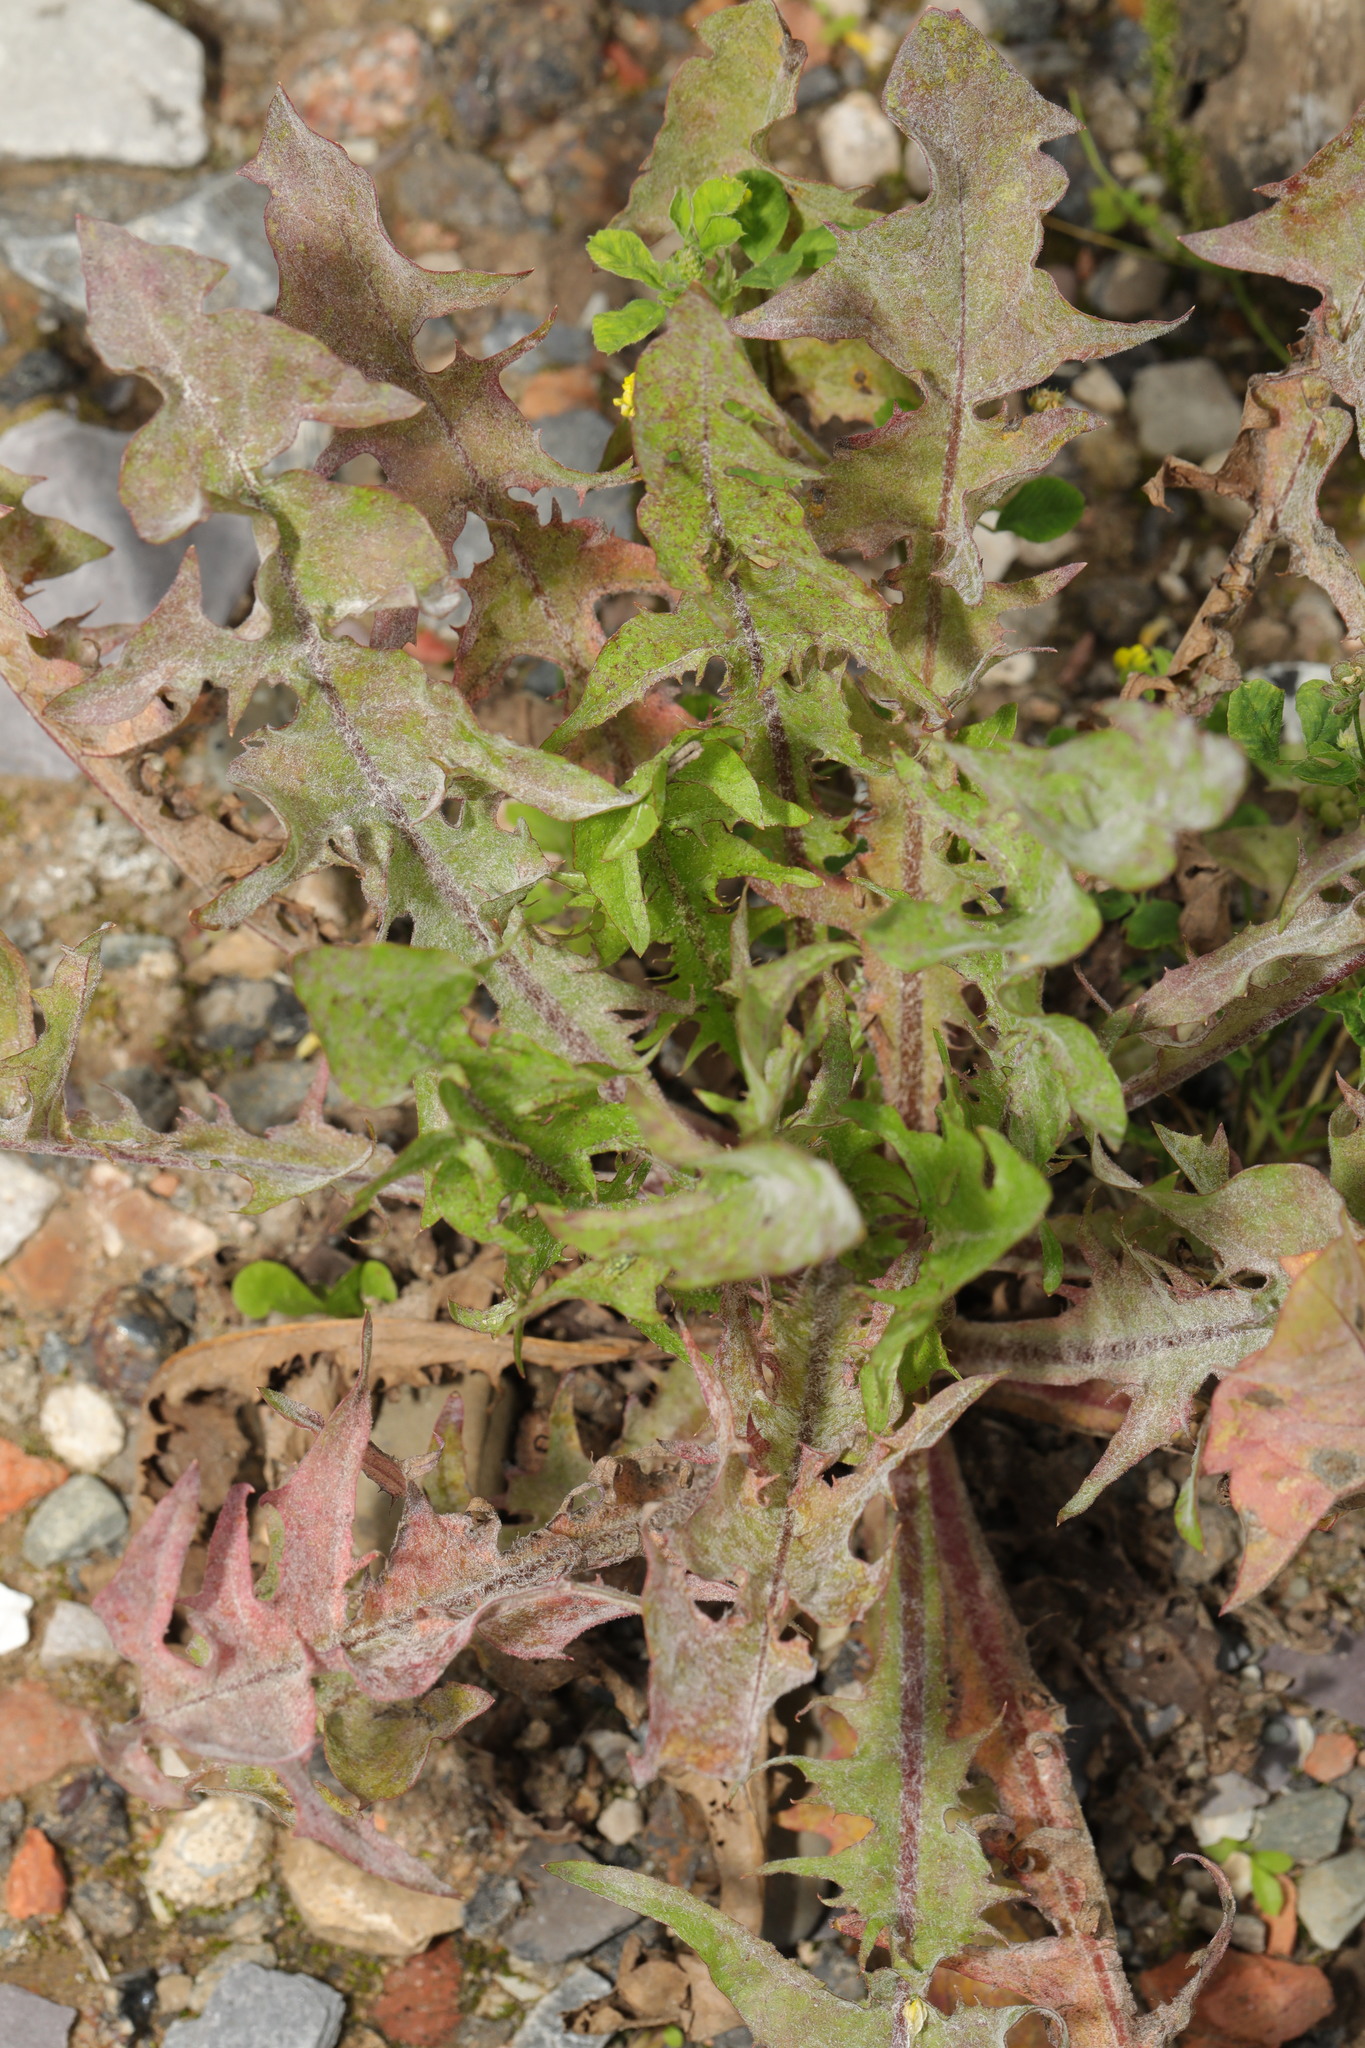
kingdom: Plantae
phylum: Tracheophyta
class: Magnoliopsida
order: Asterales
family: Asteraceae
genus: Taraxacum
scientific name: Taraxacum officinale
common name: Common dandelion
